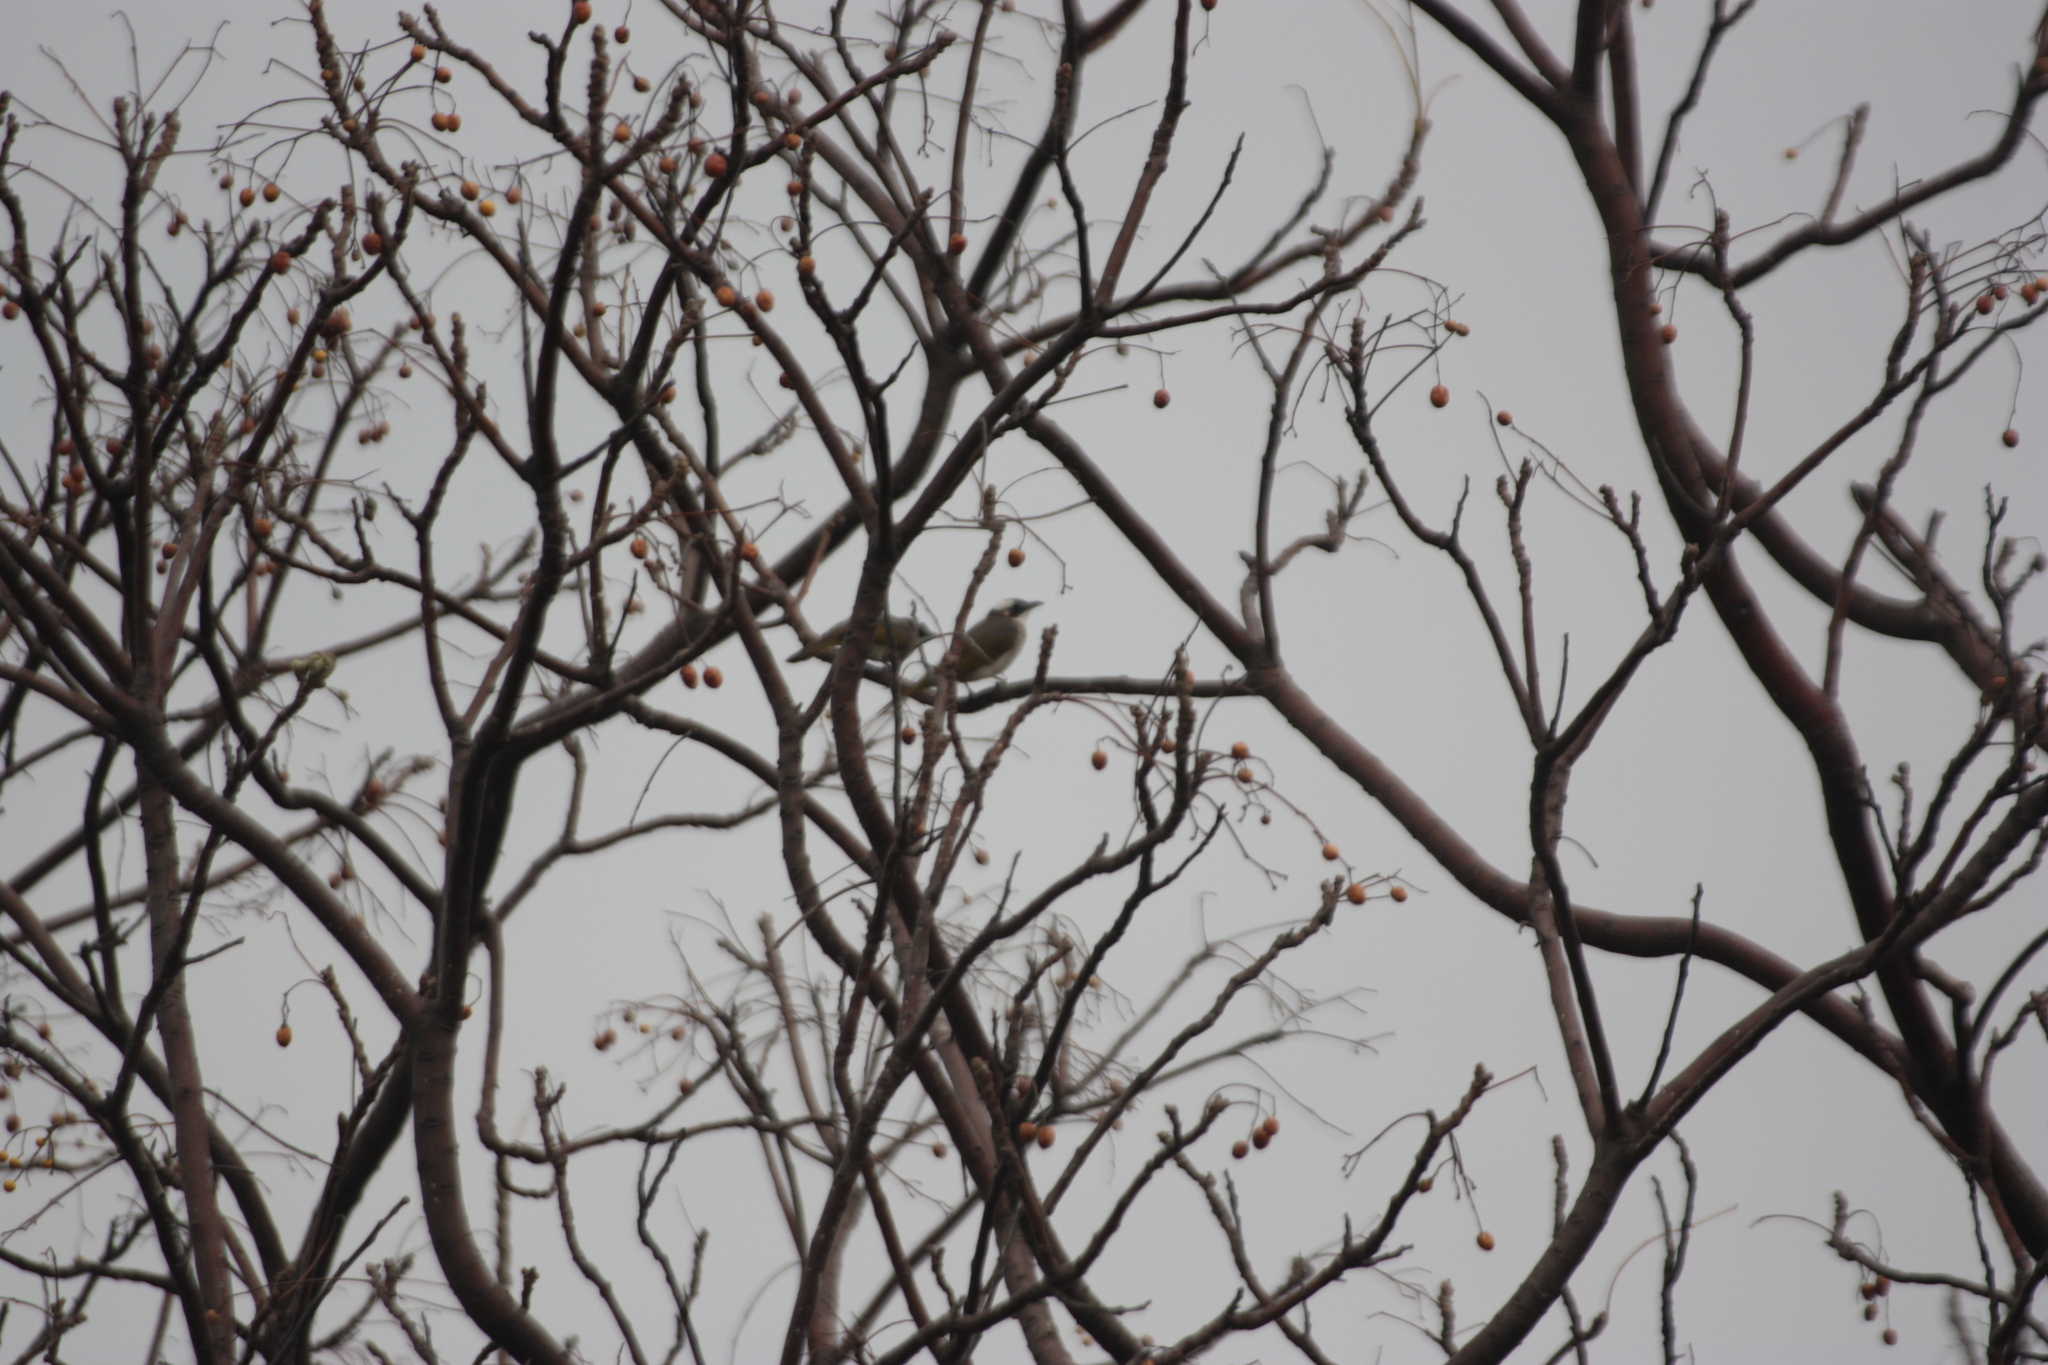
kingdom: Animalia
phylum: Chordata
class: Aves
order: Passeriformes
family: Pycnonotidae
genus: Pycnonotus
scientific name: Pycnonotus sinensis
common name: Light-vented bulbul
